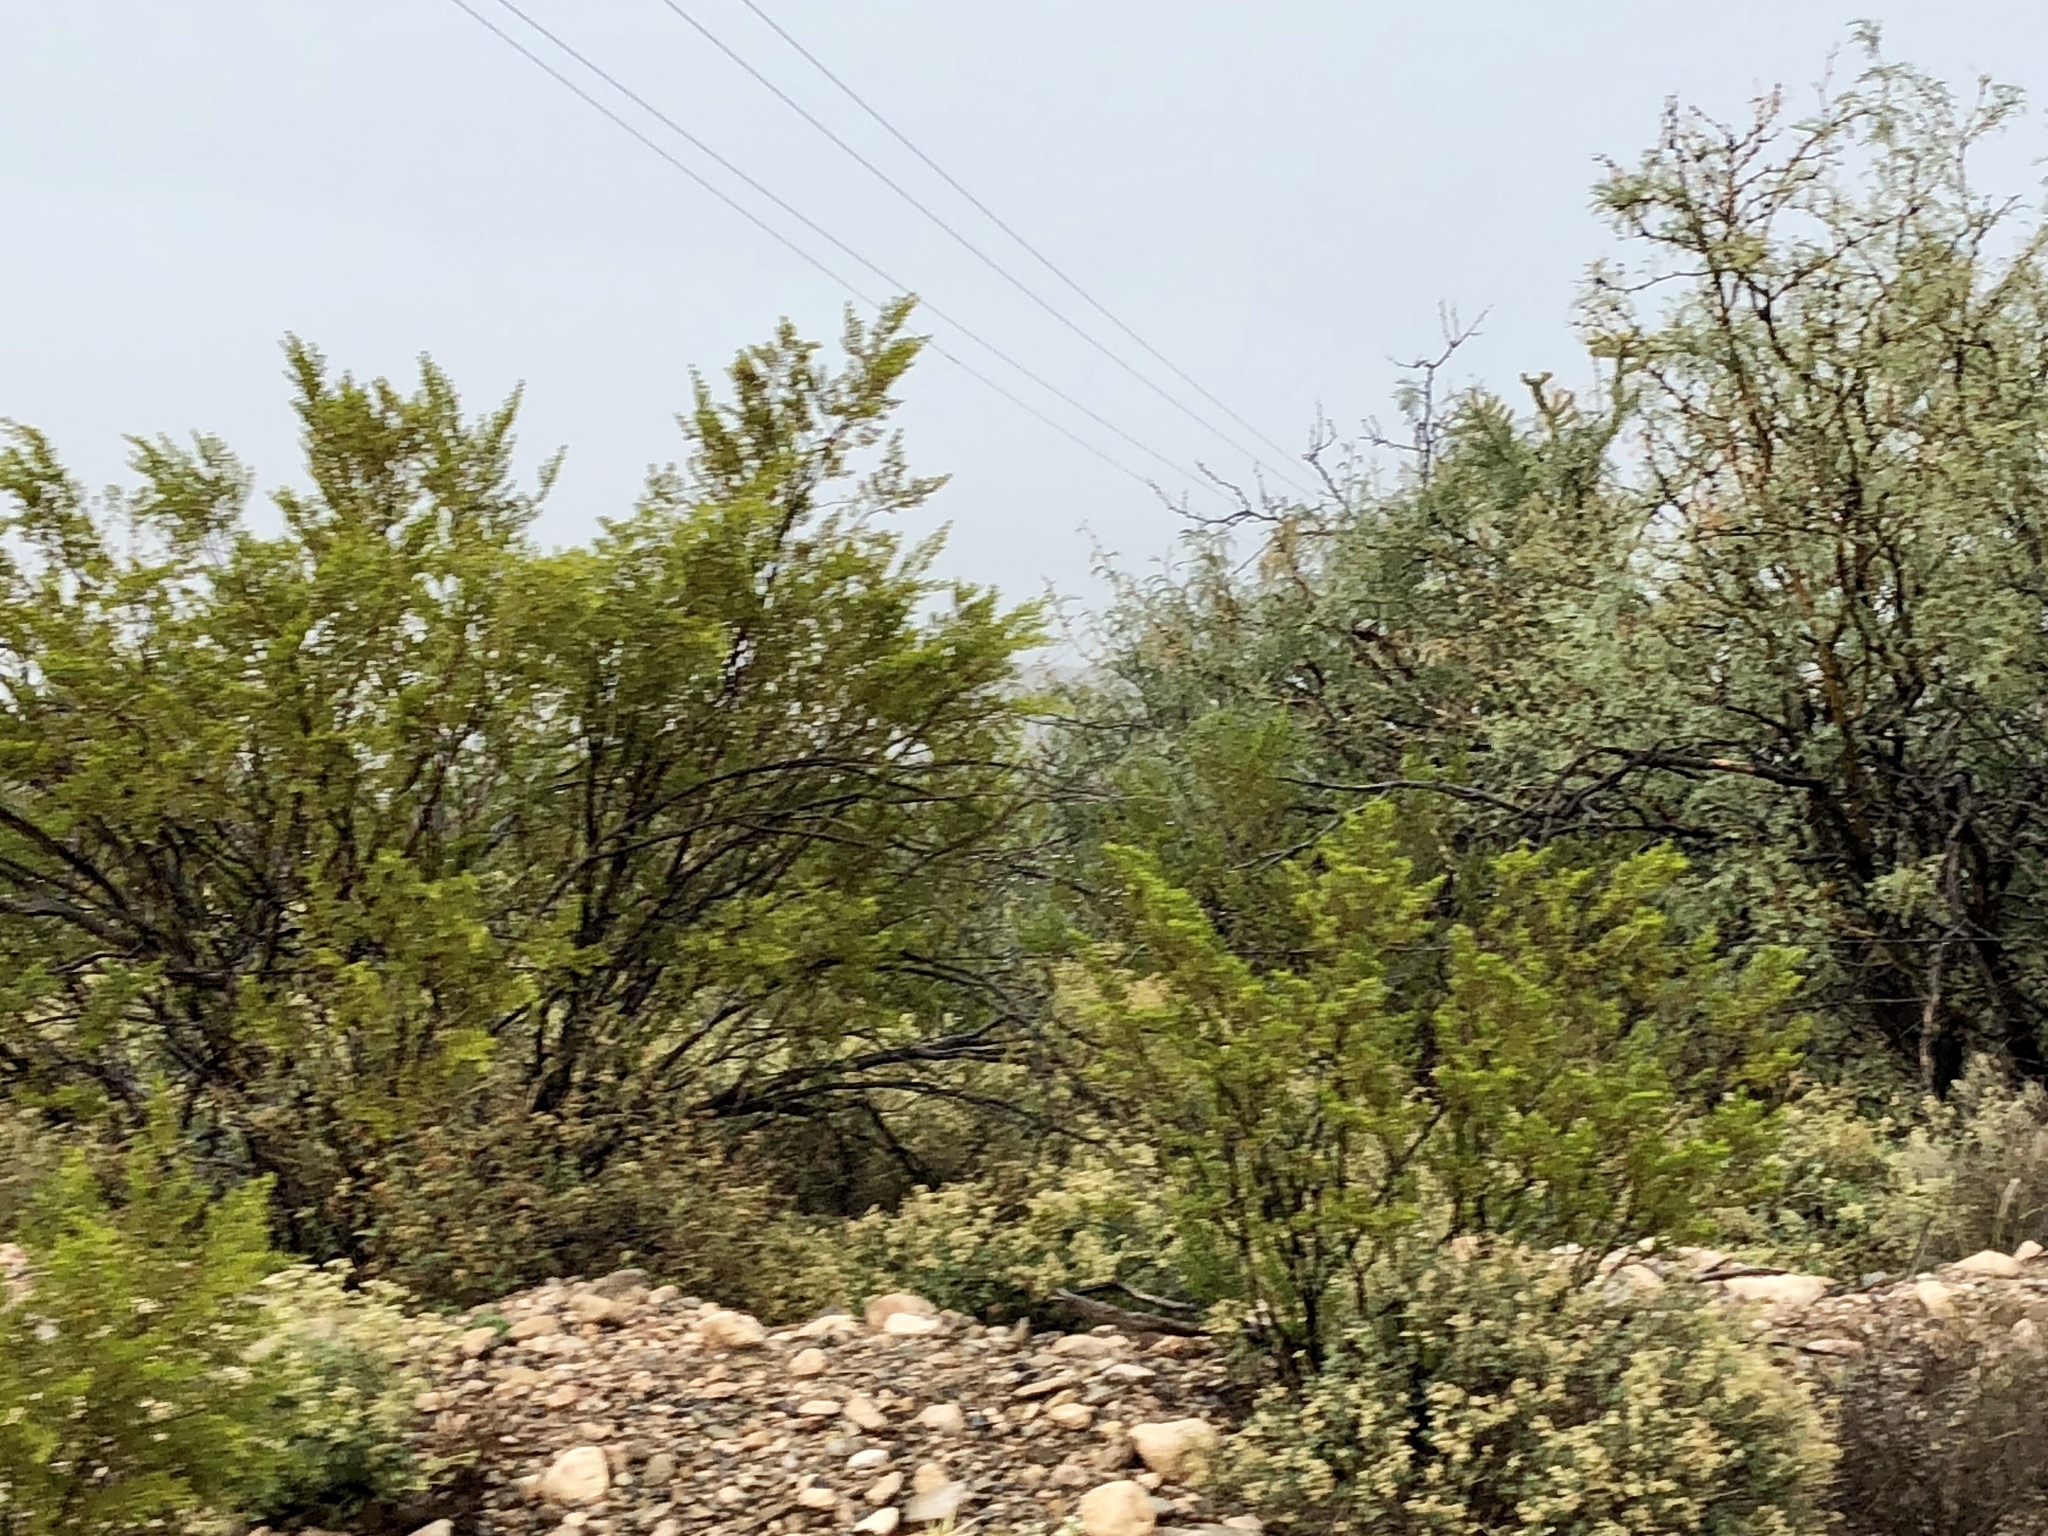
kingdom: Plantae
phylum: Tracheophyta
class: Magnoliopsida
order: Zygophyllales
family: Zygophyllaceae
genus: Larrea
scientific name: Larrea tridentata
